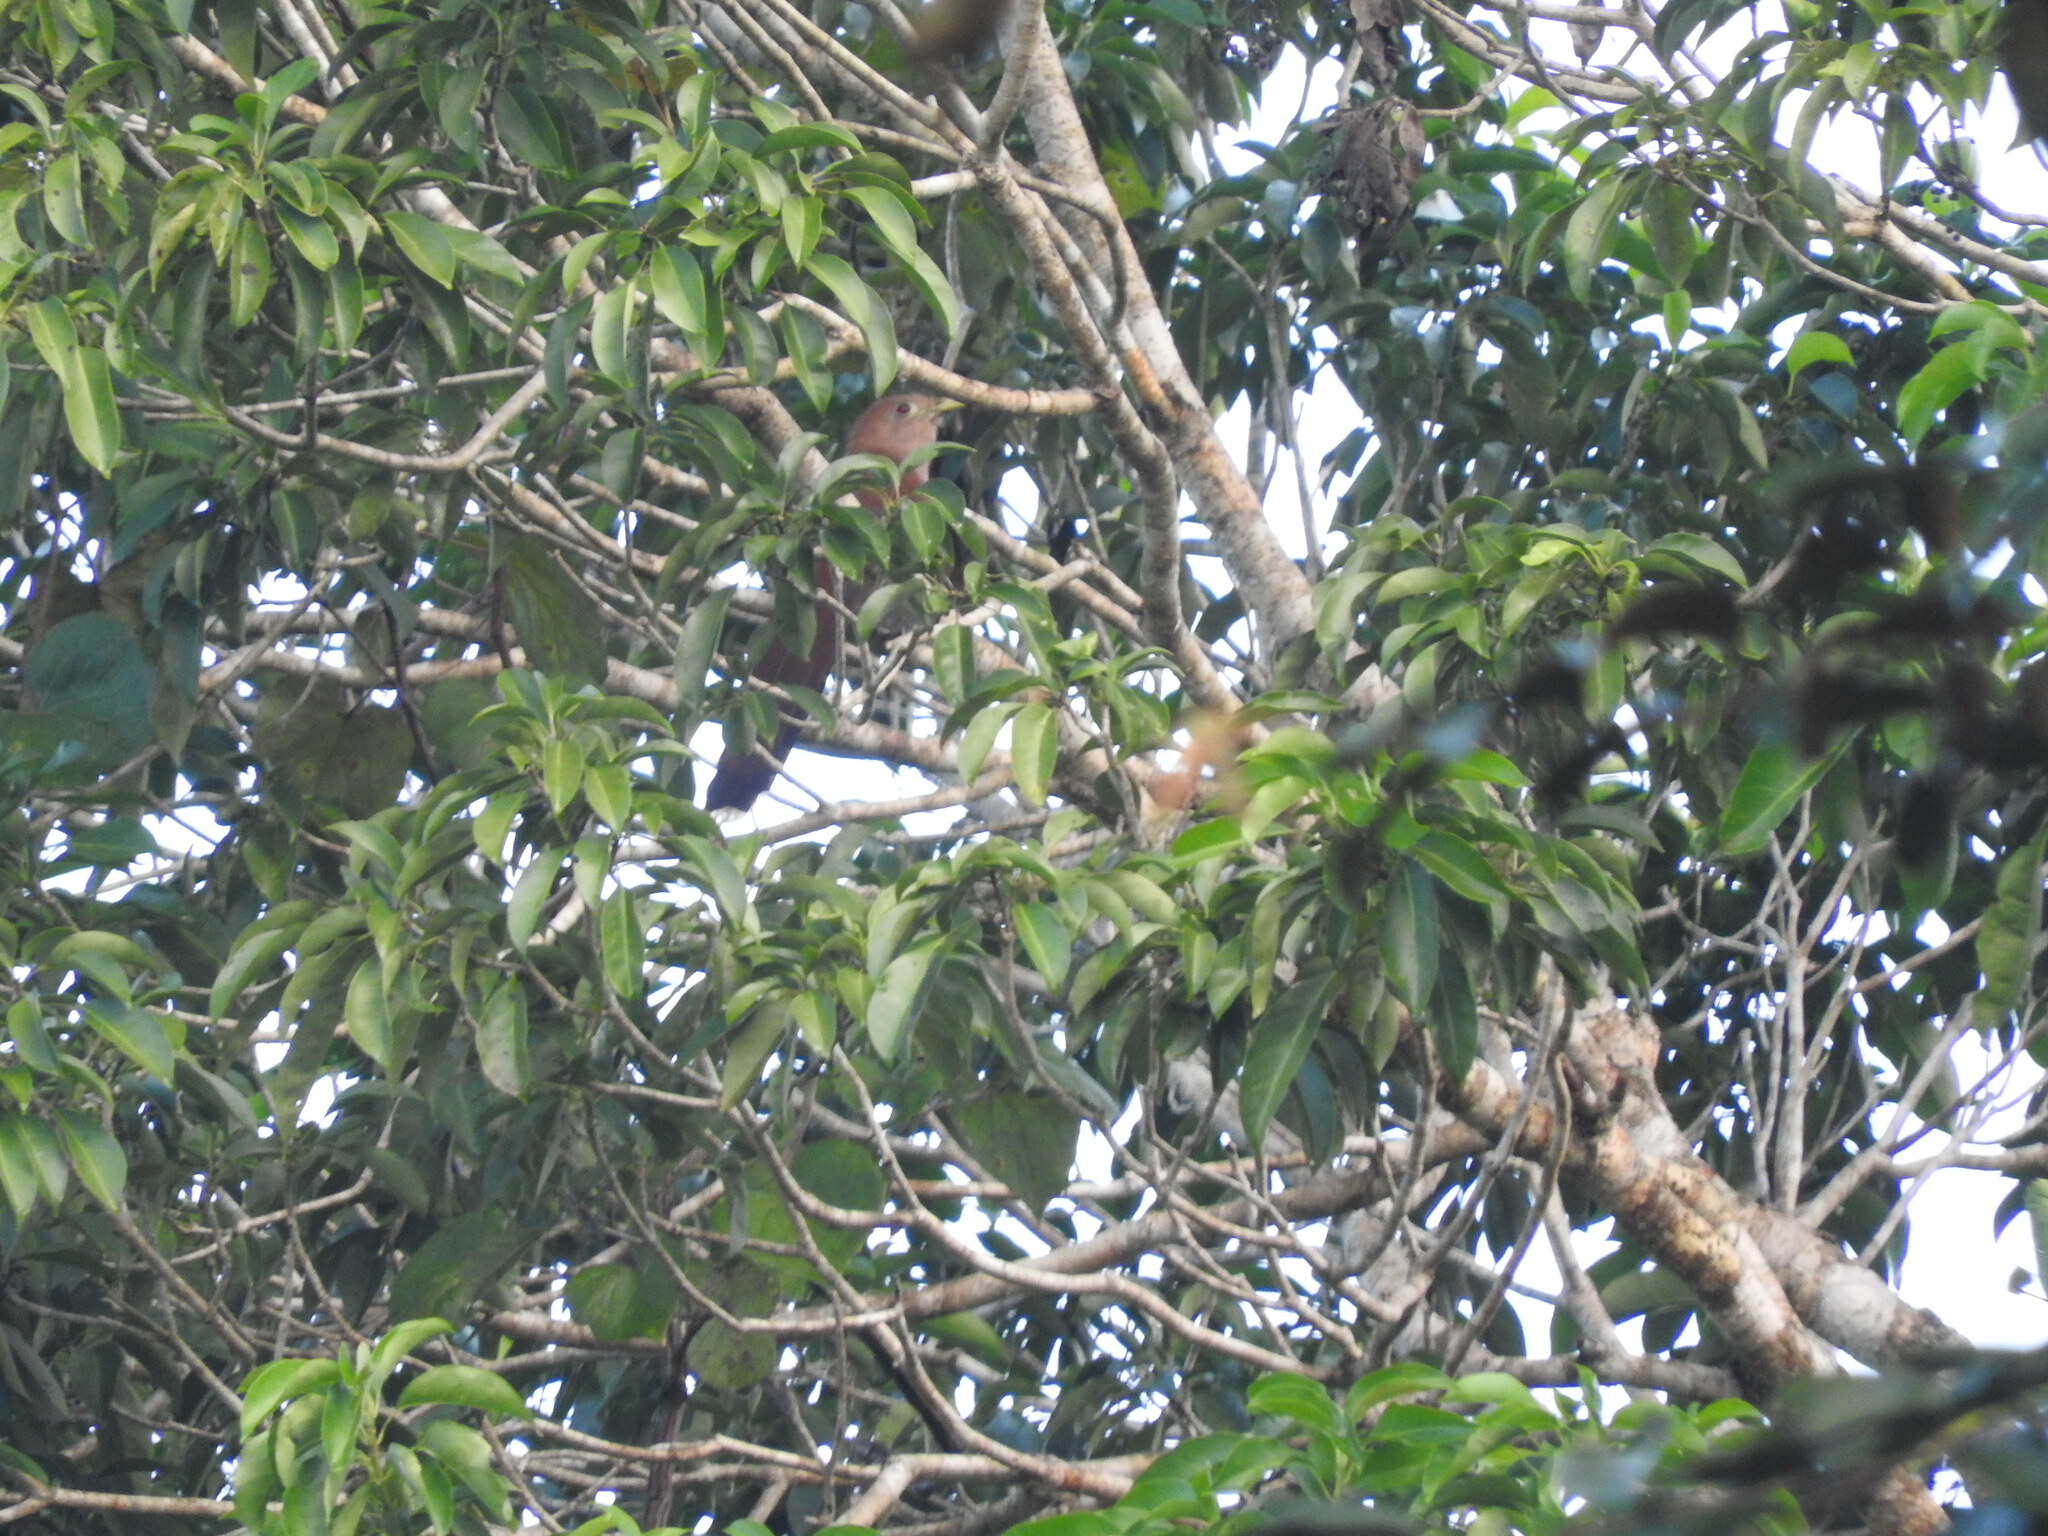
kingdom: Animalia
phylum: Chordata
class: Aves
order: Cuculiformes
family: Cuculidae
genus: Piaya
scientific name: Piaya cayana
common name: Squirrel cuckoo
